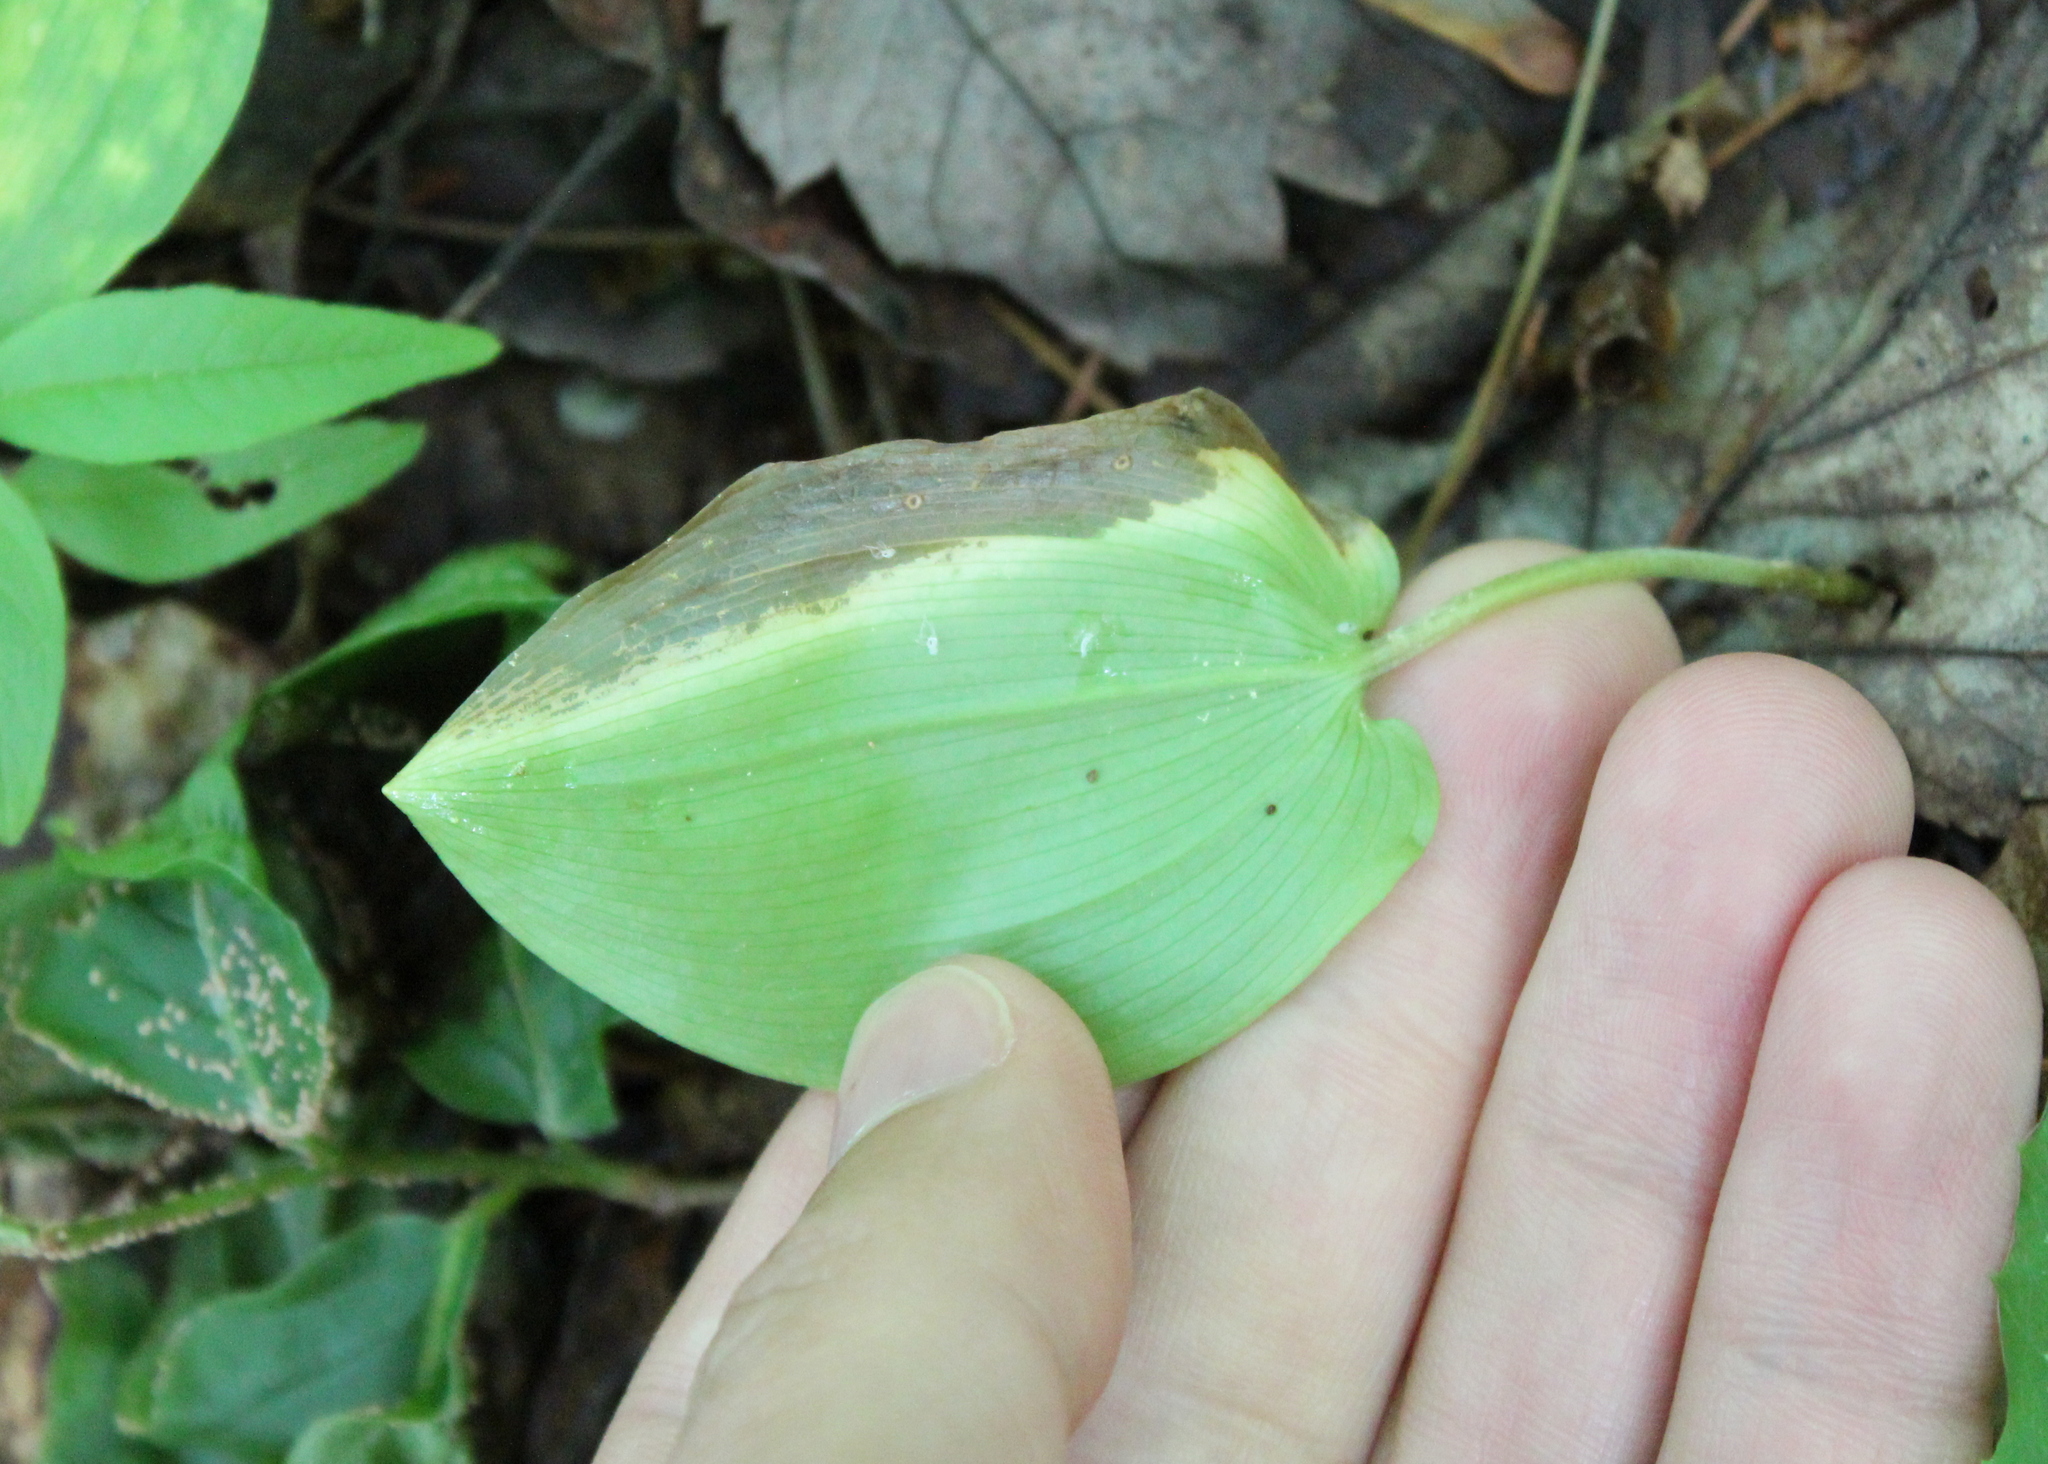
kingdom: Plantae
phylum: Tracheophyta
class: Liliopsida
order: Asparagales
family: Asparagaceae
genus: Maianthemum
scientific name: Maianthemum canadense
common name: False lily-of-the-valley
